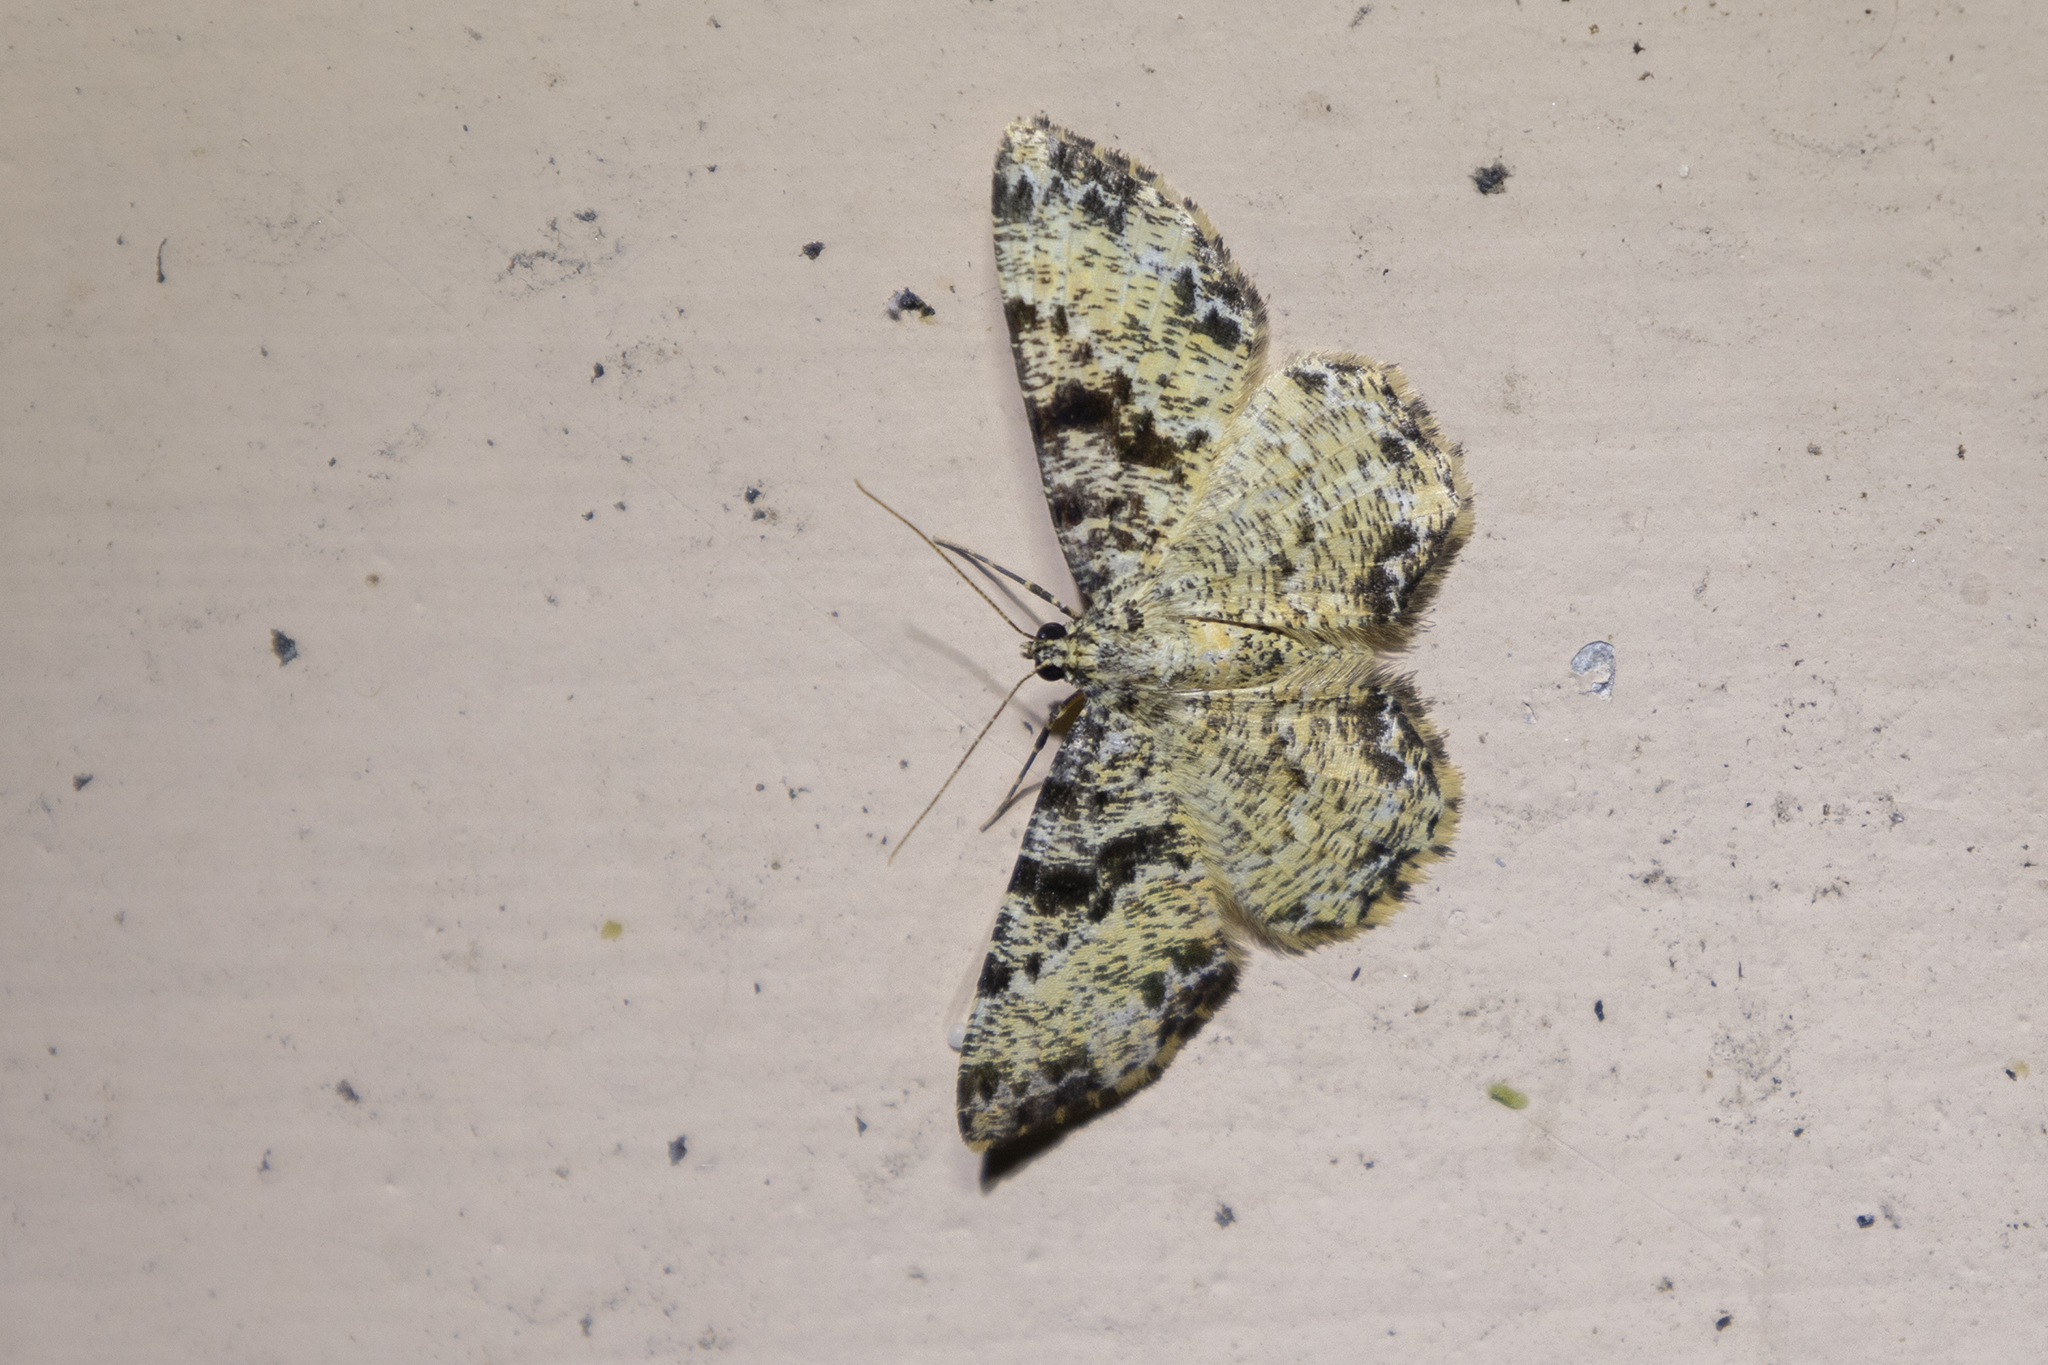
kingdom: Animalia
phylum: Arthropoda
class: Insecta
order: Lepidoptera
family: Geometridae
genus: Monocerotesa
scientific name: Monocerotesa strigata
